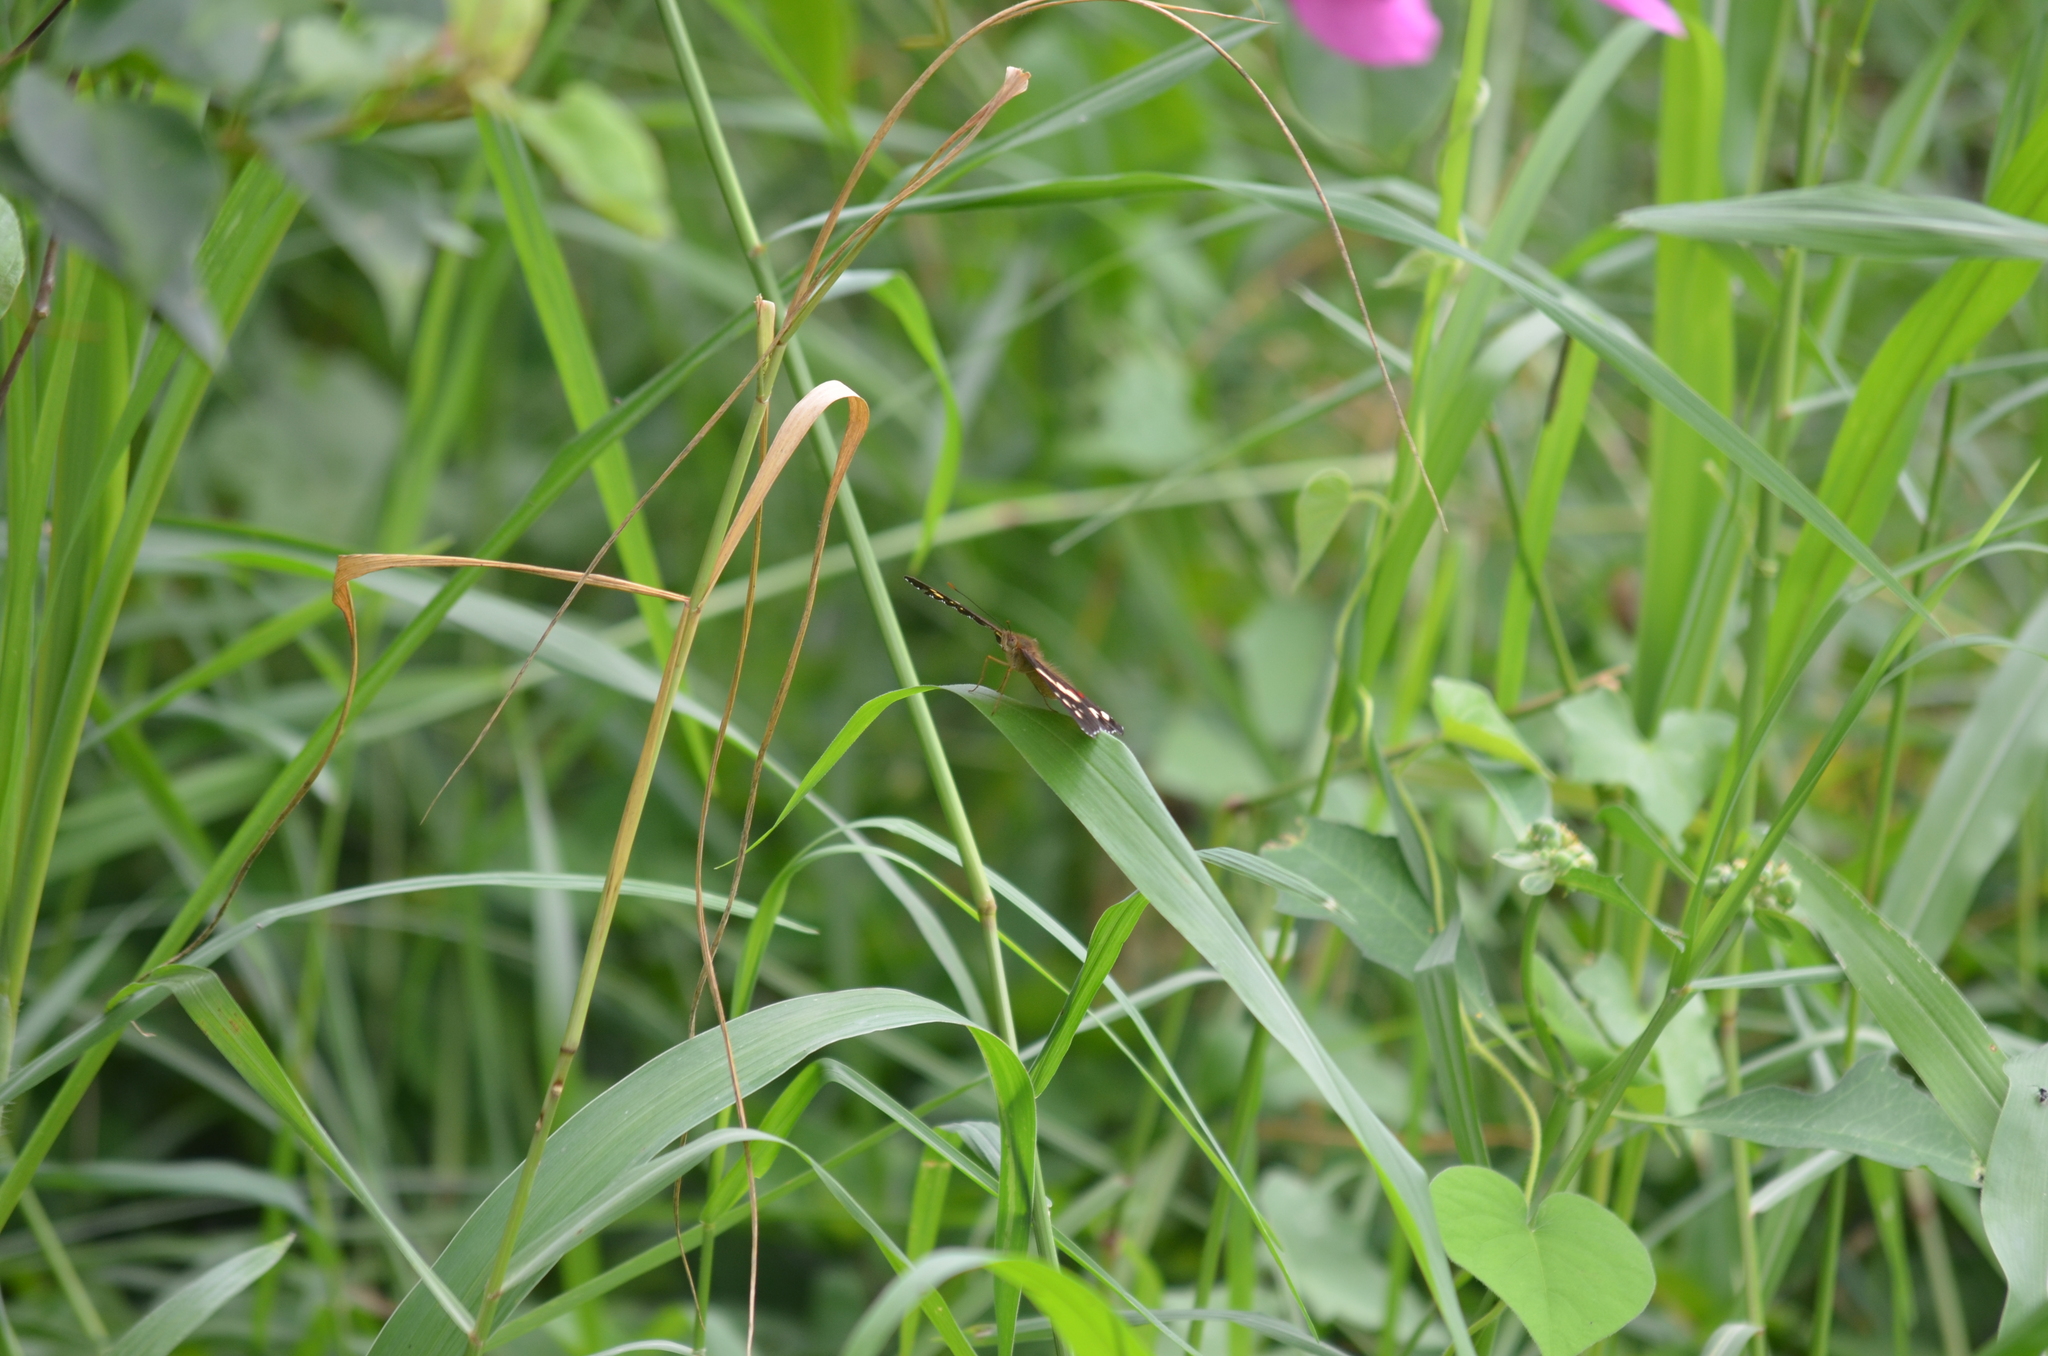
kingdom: Animalia
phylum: Arthropoda
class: Insecta
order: Lepidoptera
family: Nymphalidae
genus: Anartia
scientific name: Anartia fatima
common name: Banded peacock
